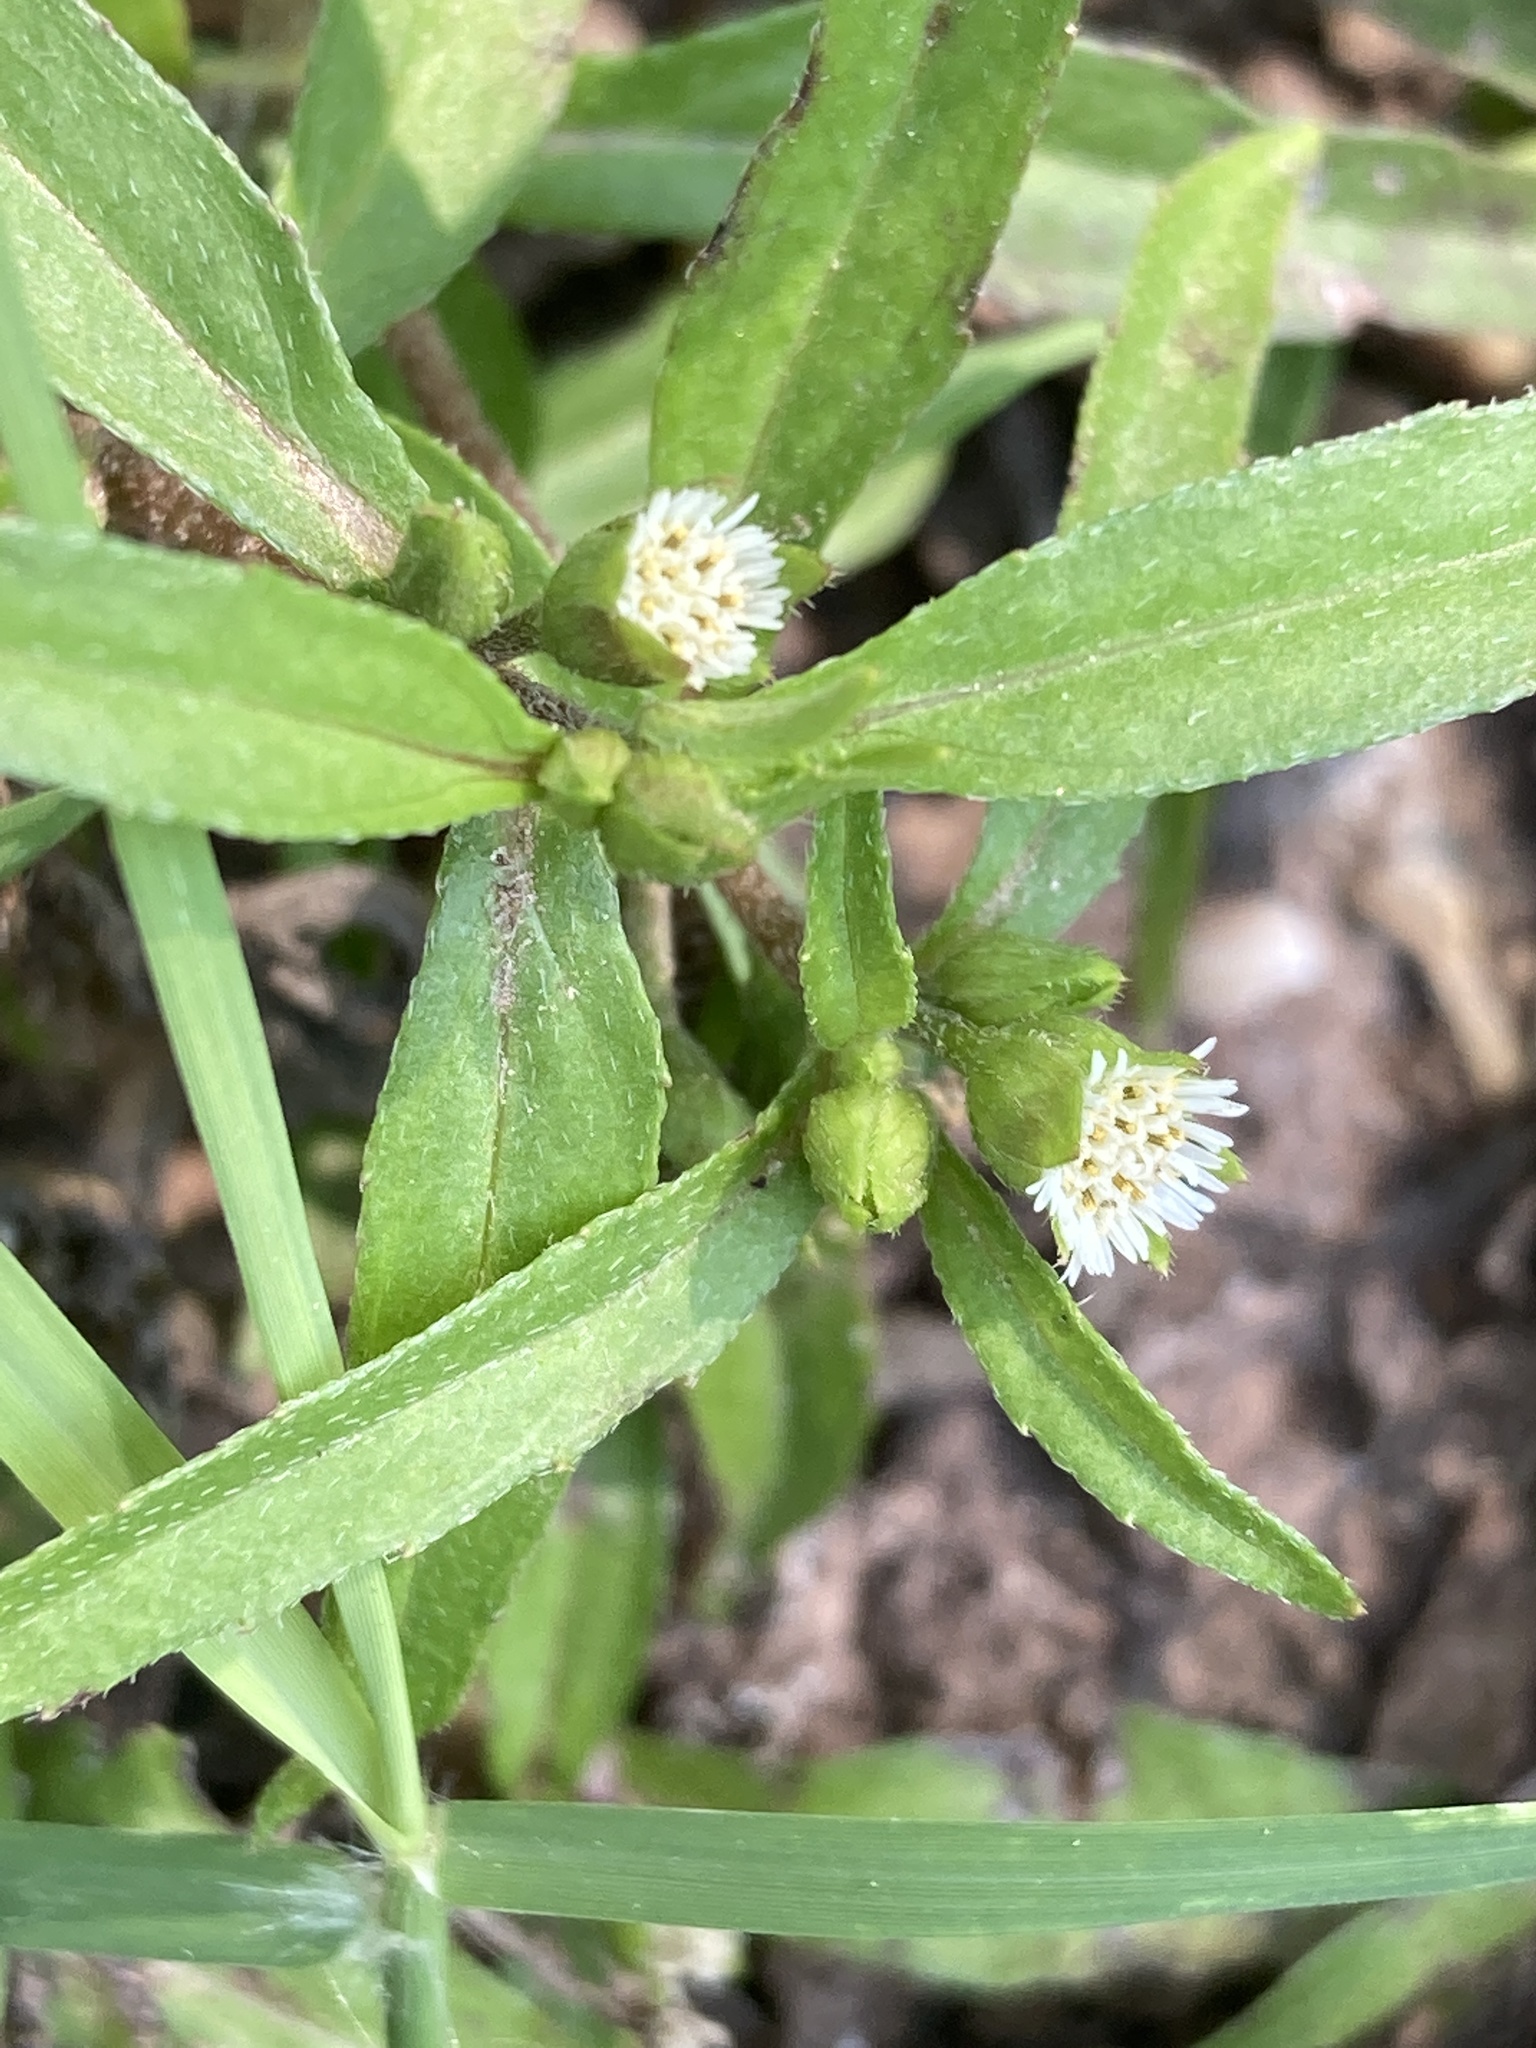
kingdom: Plantae
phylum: Tracheophyta
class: Magnoliopsida
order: Asterales
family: Asteraceae
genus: Eclipta
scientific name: Eclipta prostrata
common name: False daisy
